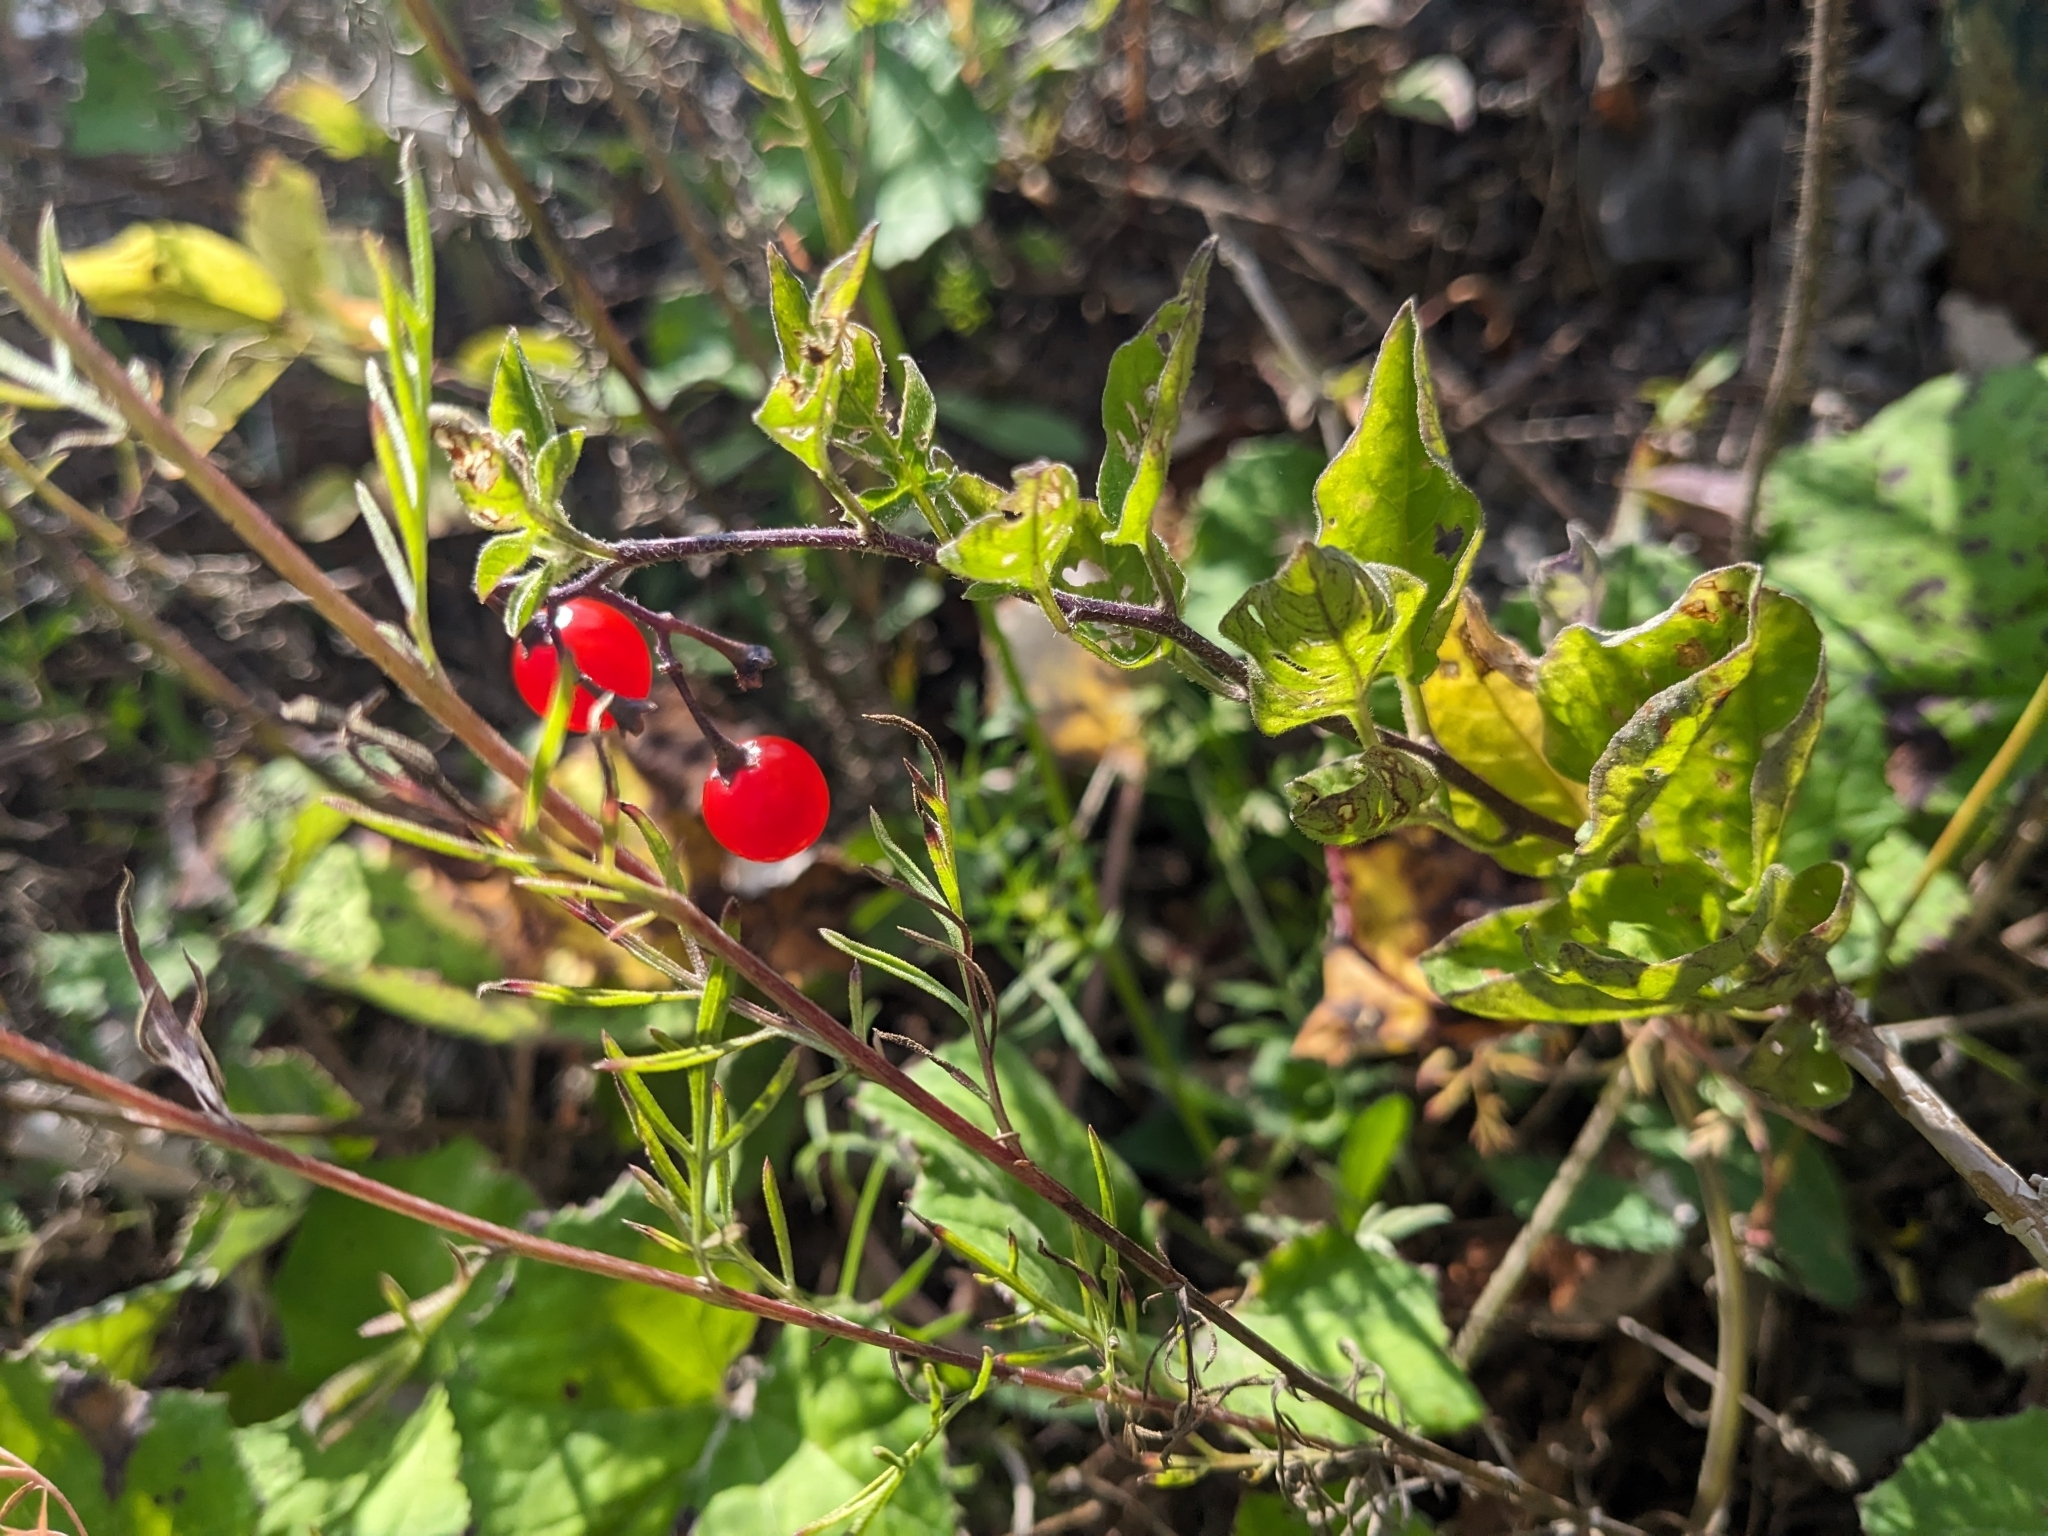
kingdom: Plantae
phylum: Tracheophyta
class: Magnoliopsida
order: Solanales
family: Solanaceae
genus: Solanum
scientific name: Solanum dulcamara
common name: Climbing nightshade
